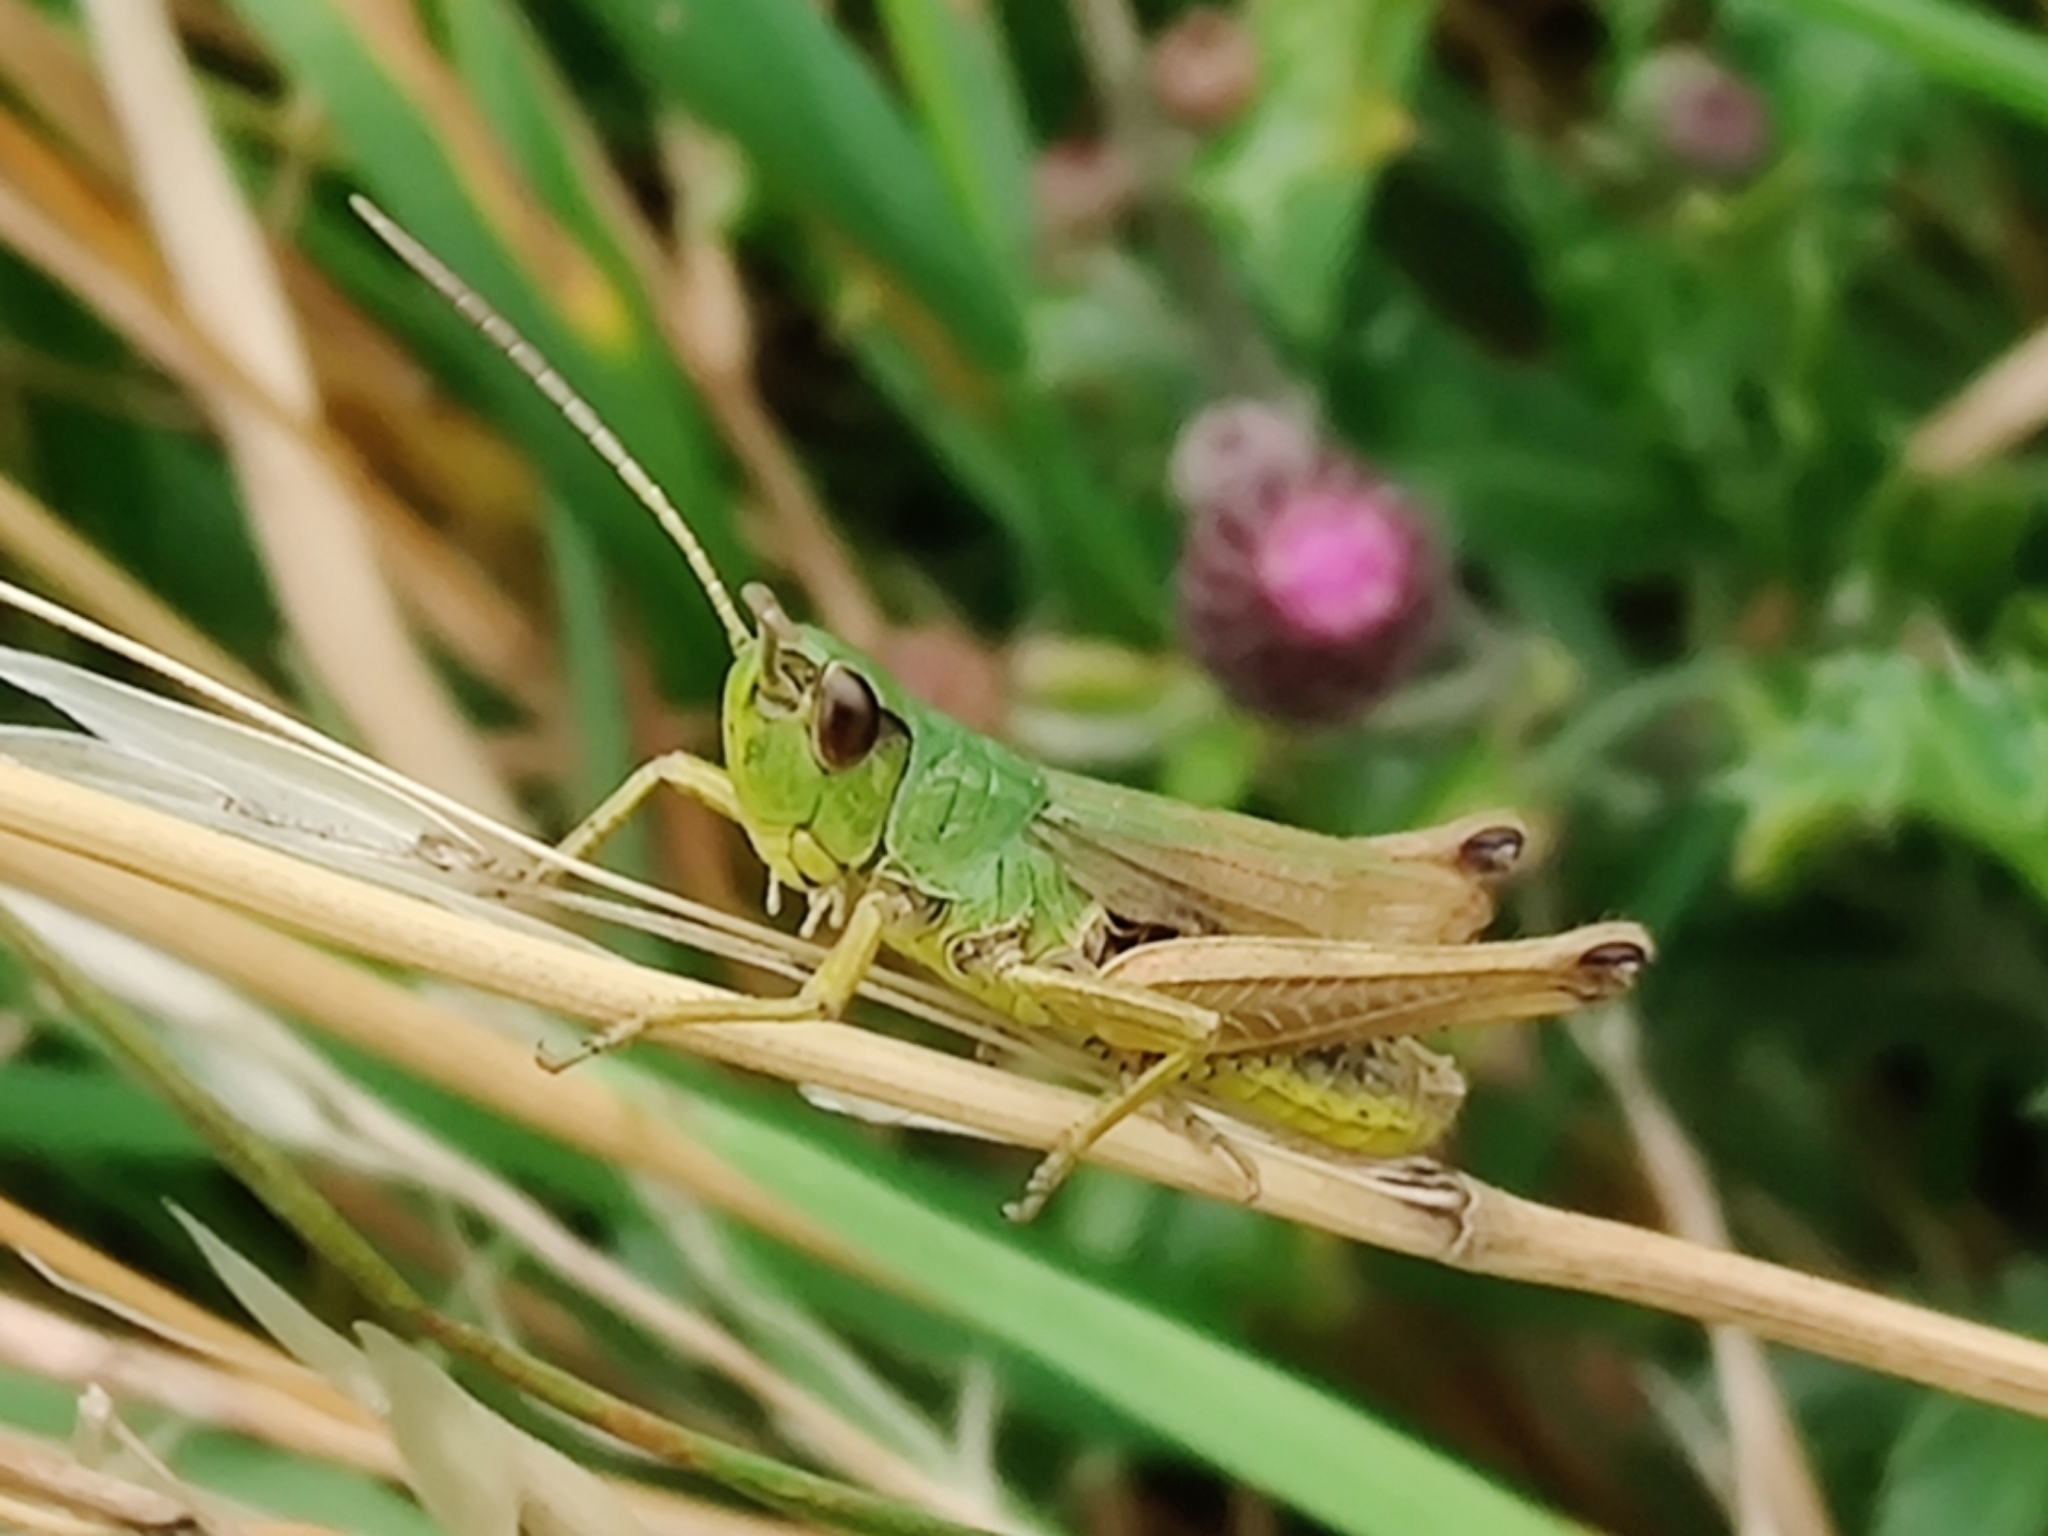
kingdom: Animalia
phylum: Arthropoda
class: Insecta
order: Orthoptera
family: Acrididae
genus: Pseudochorthippus
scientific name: Pseudochorthippus parallelus
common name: Meadow grasshopper
